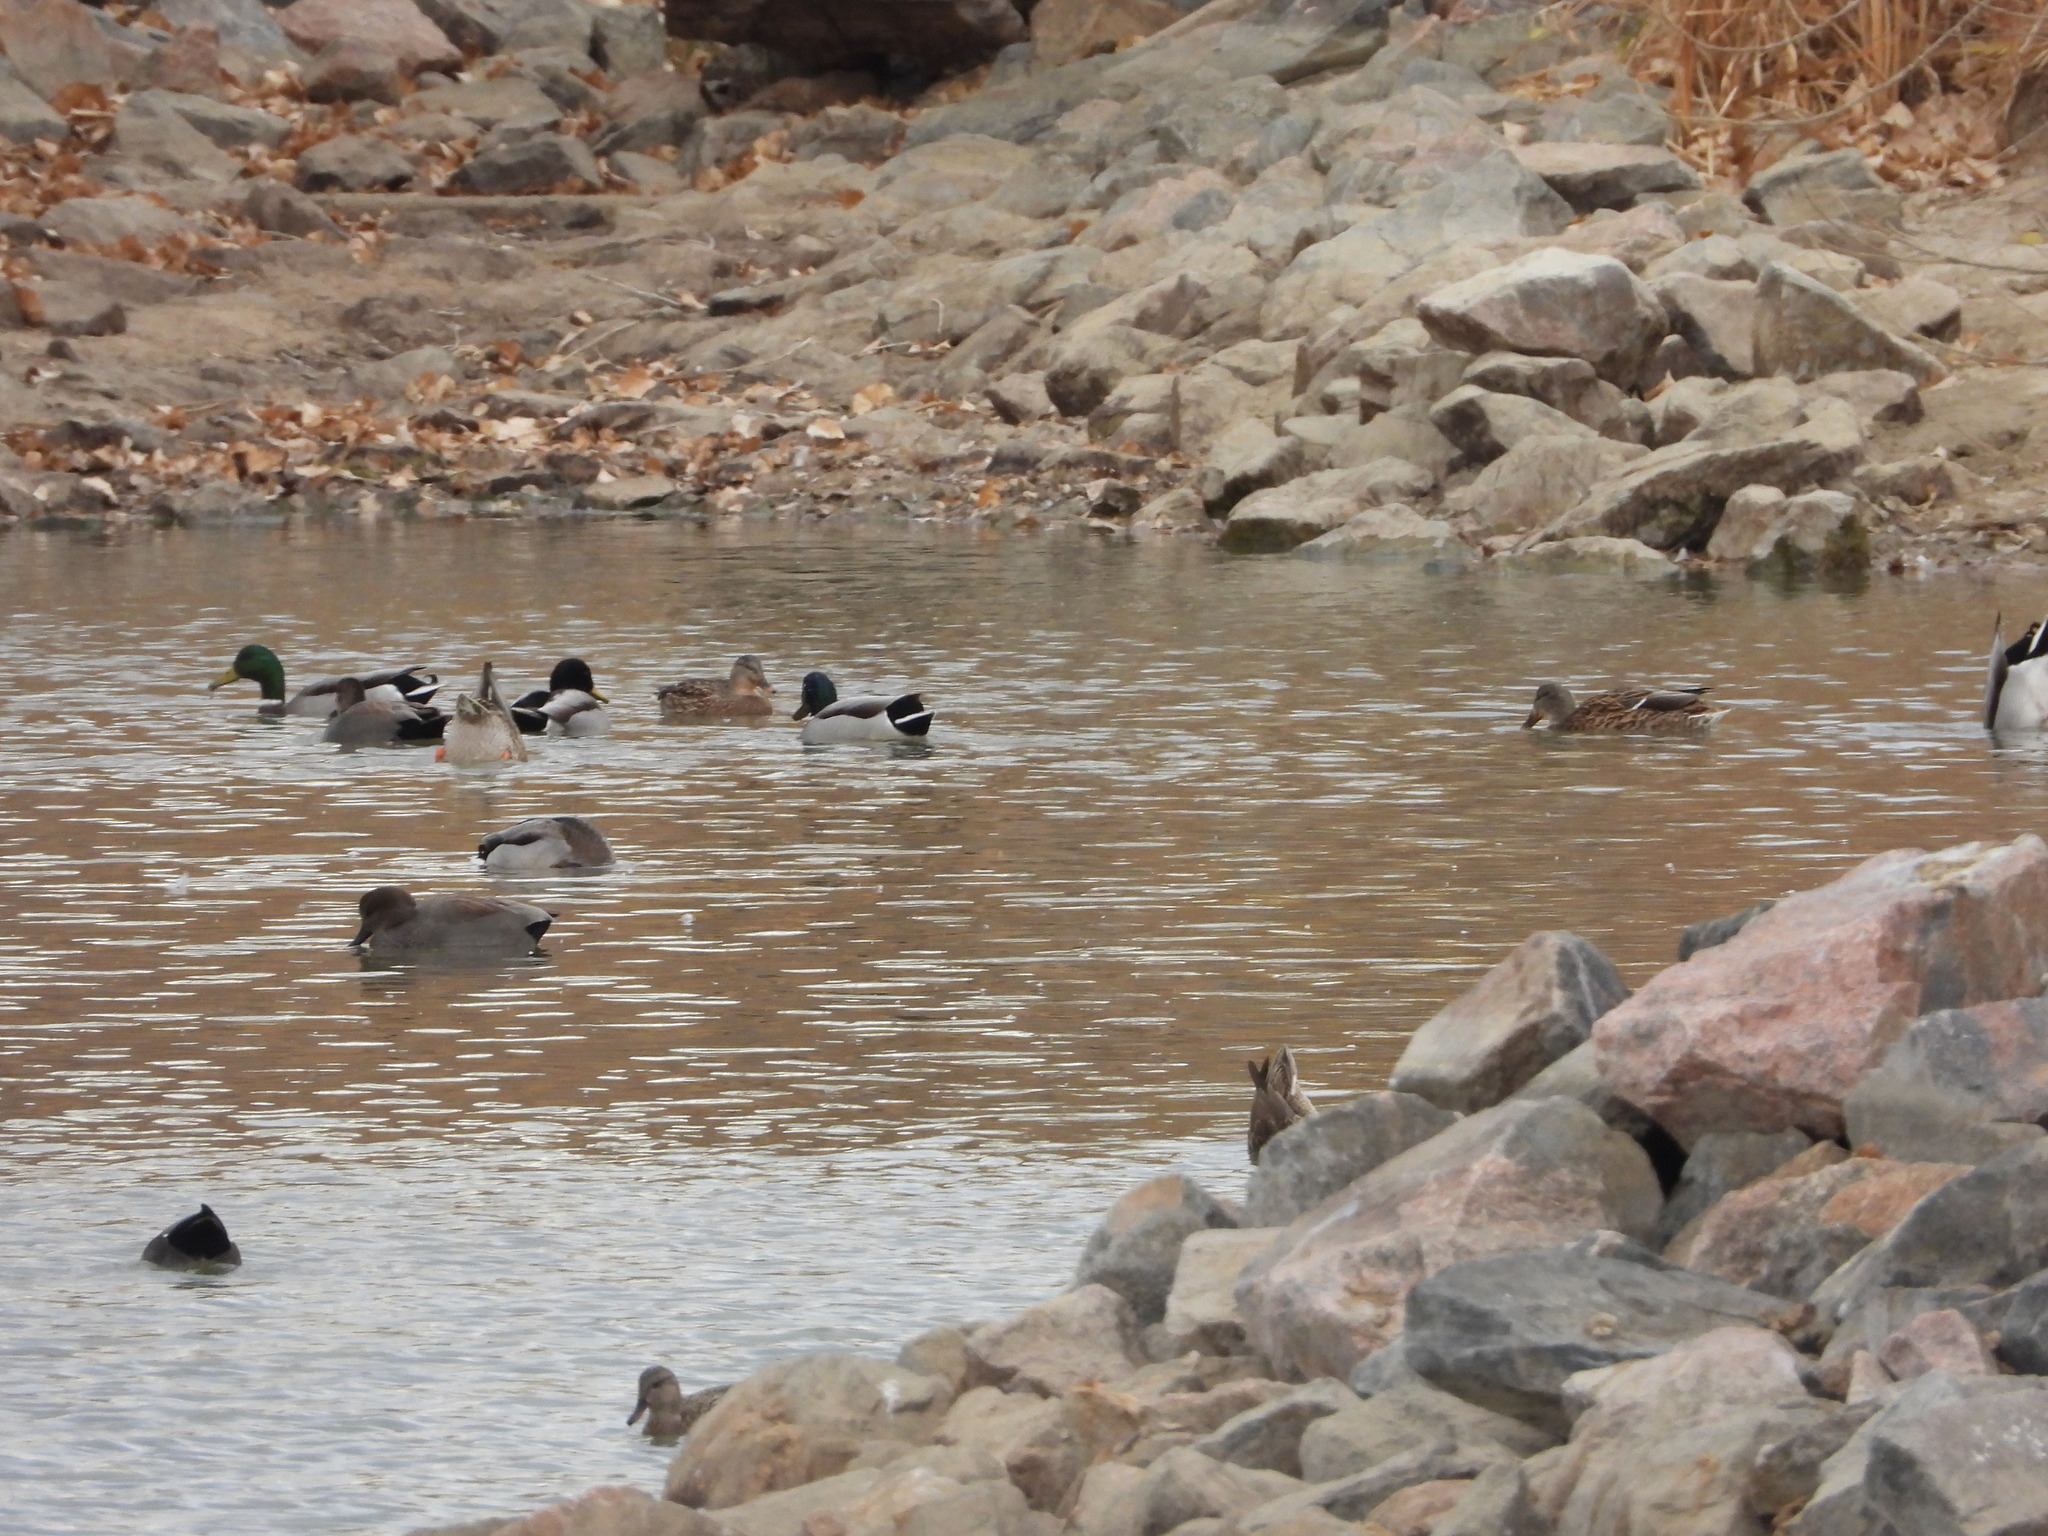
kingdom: Animalia
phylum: Chordata
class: Aves
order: Anseriformes
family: Anatidae
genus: Anas
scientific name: Anas platyrhynchos
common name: Mallard
